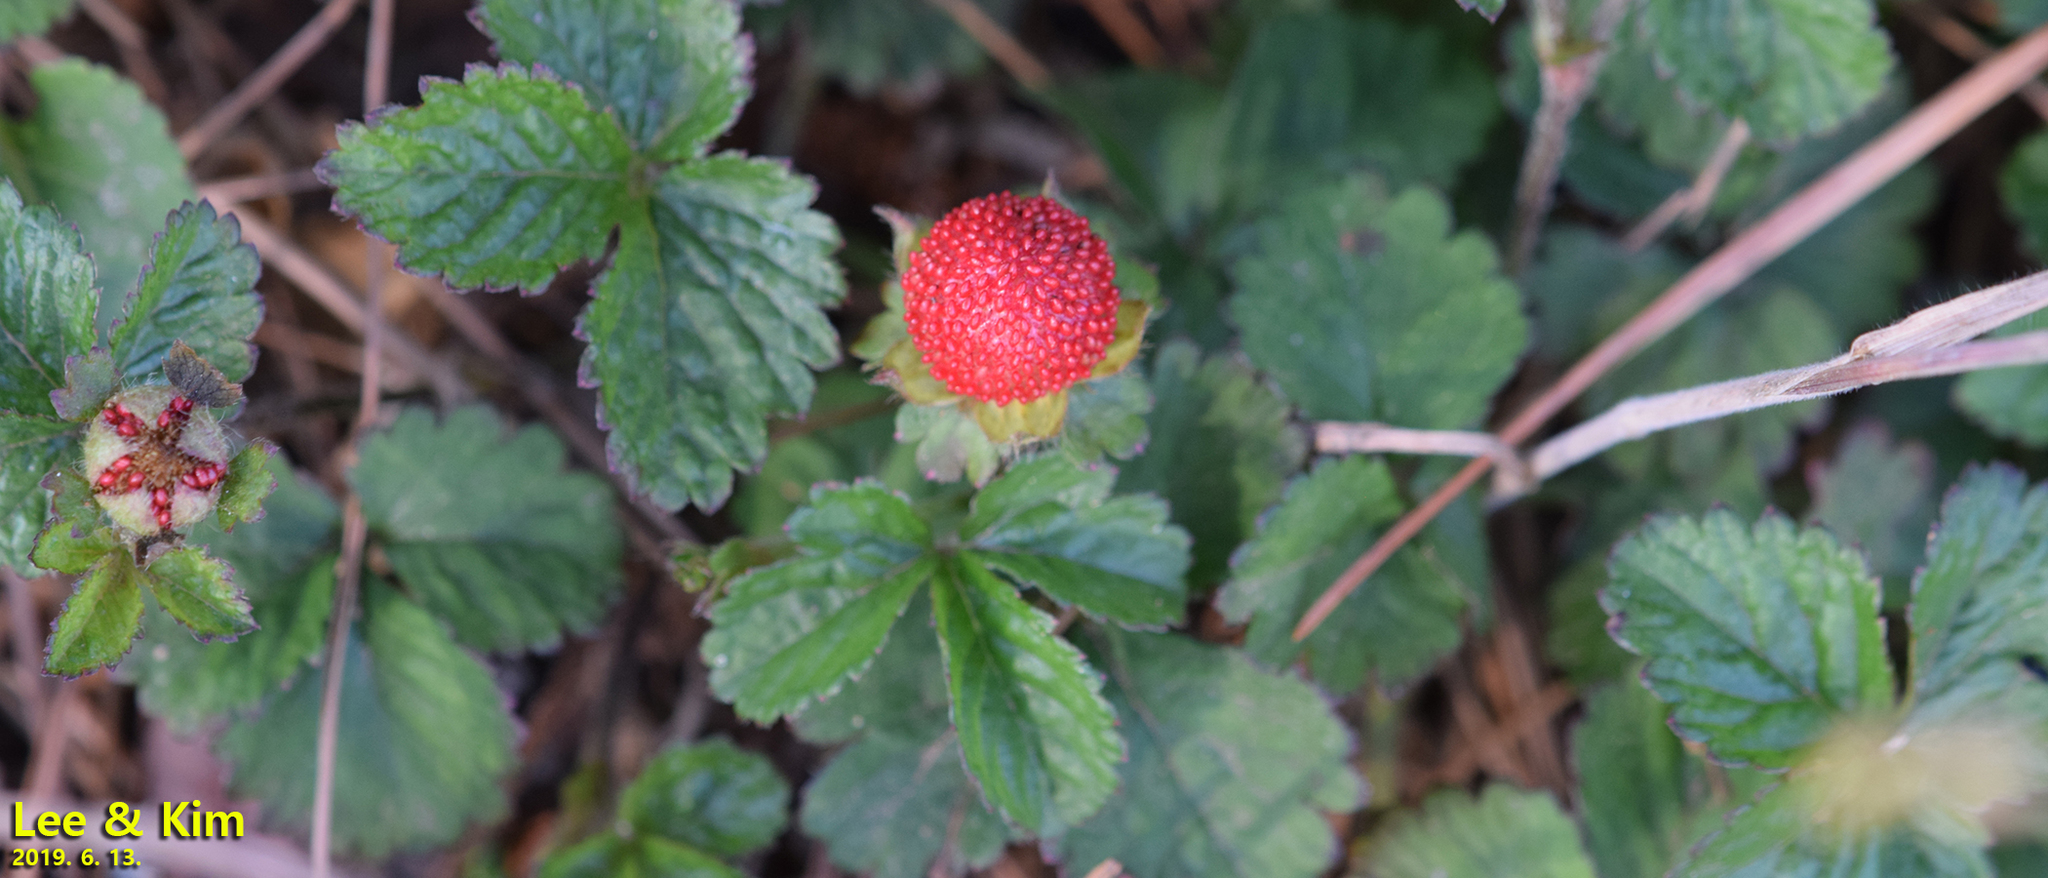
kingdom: Plantae
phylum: Tracheophyta
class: Magnoliopsida
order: Rosales
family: Rosaceae
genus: Potentilla
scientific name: Potentilla indica
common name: Yellow-flowered strawberry
